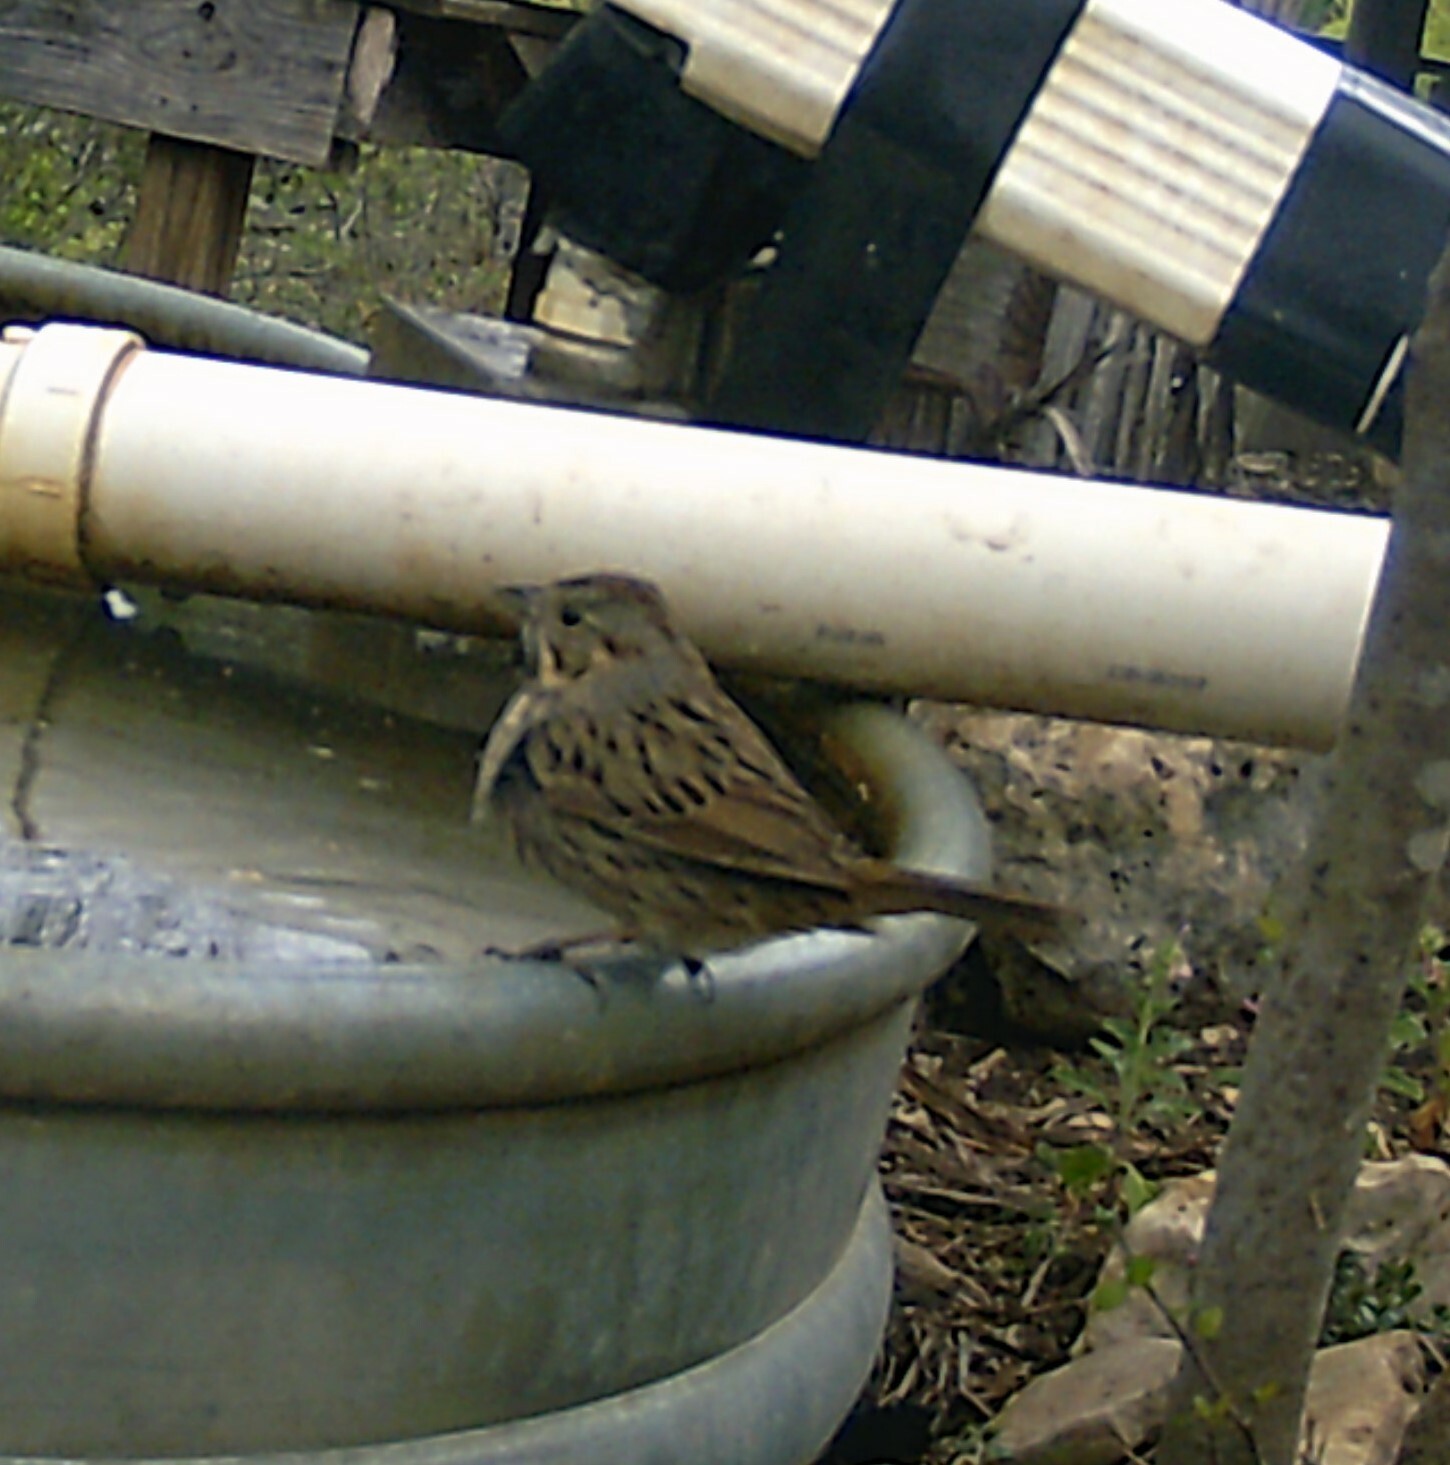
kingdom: Animalia
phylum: Chordata
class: Aves
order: Passeriformes
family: Passerellidae
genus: Melospiza
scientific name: Melospiza lincolnii
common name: Lincoln's sparrow
